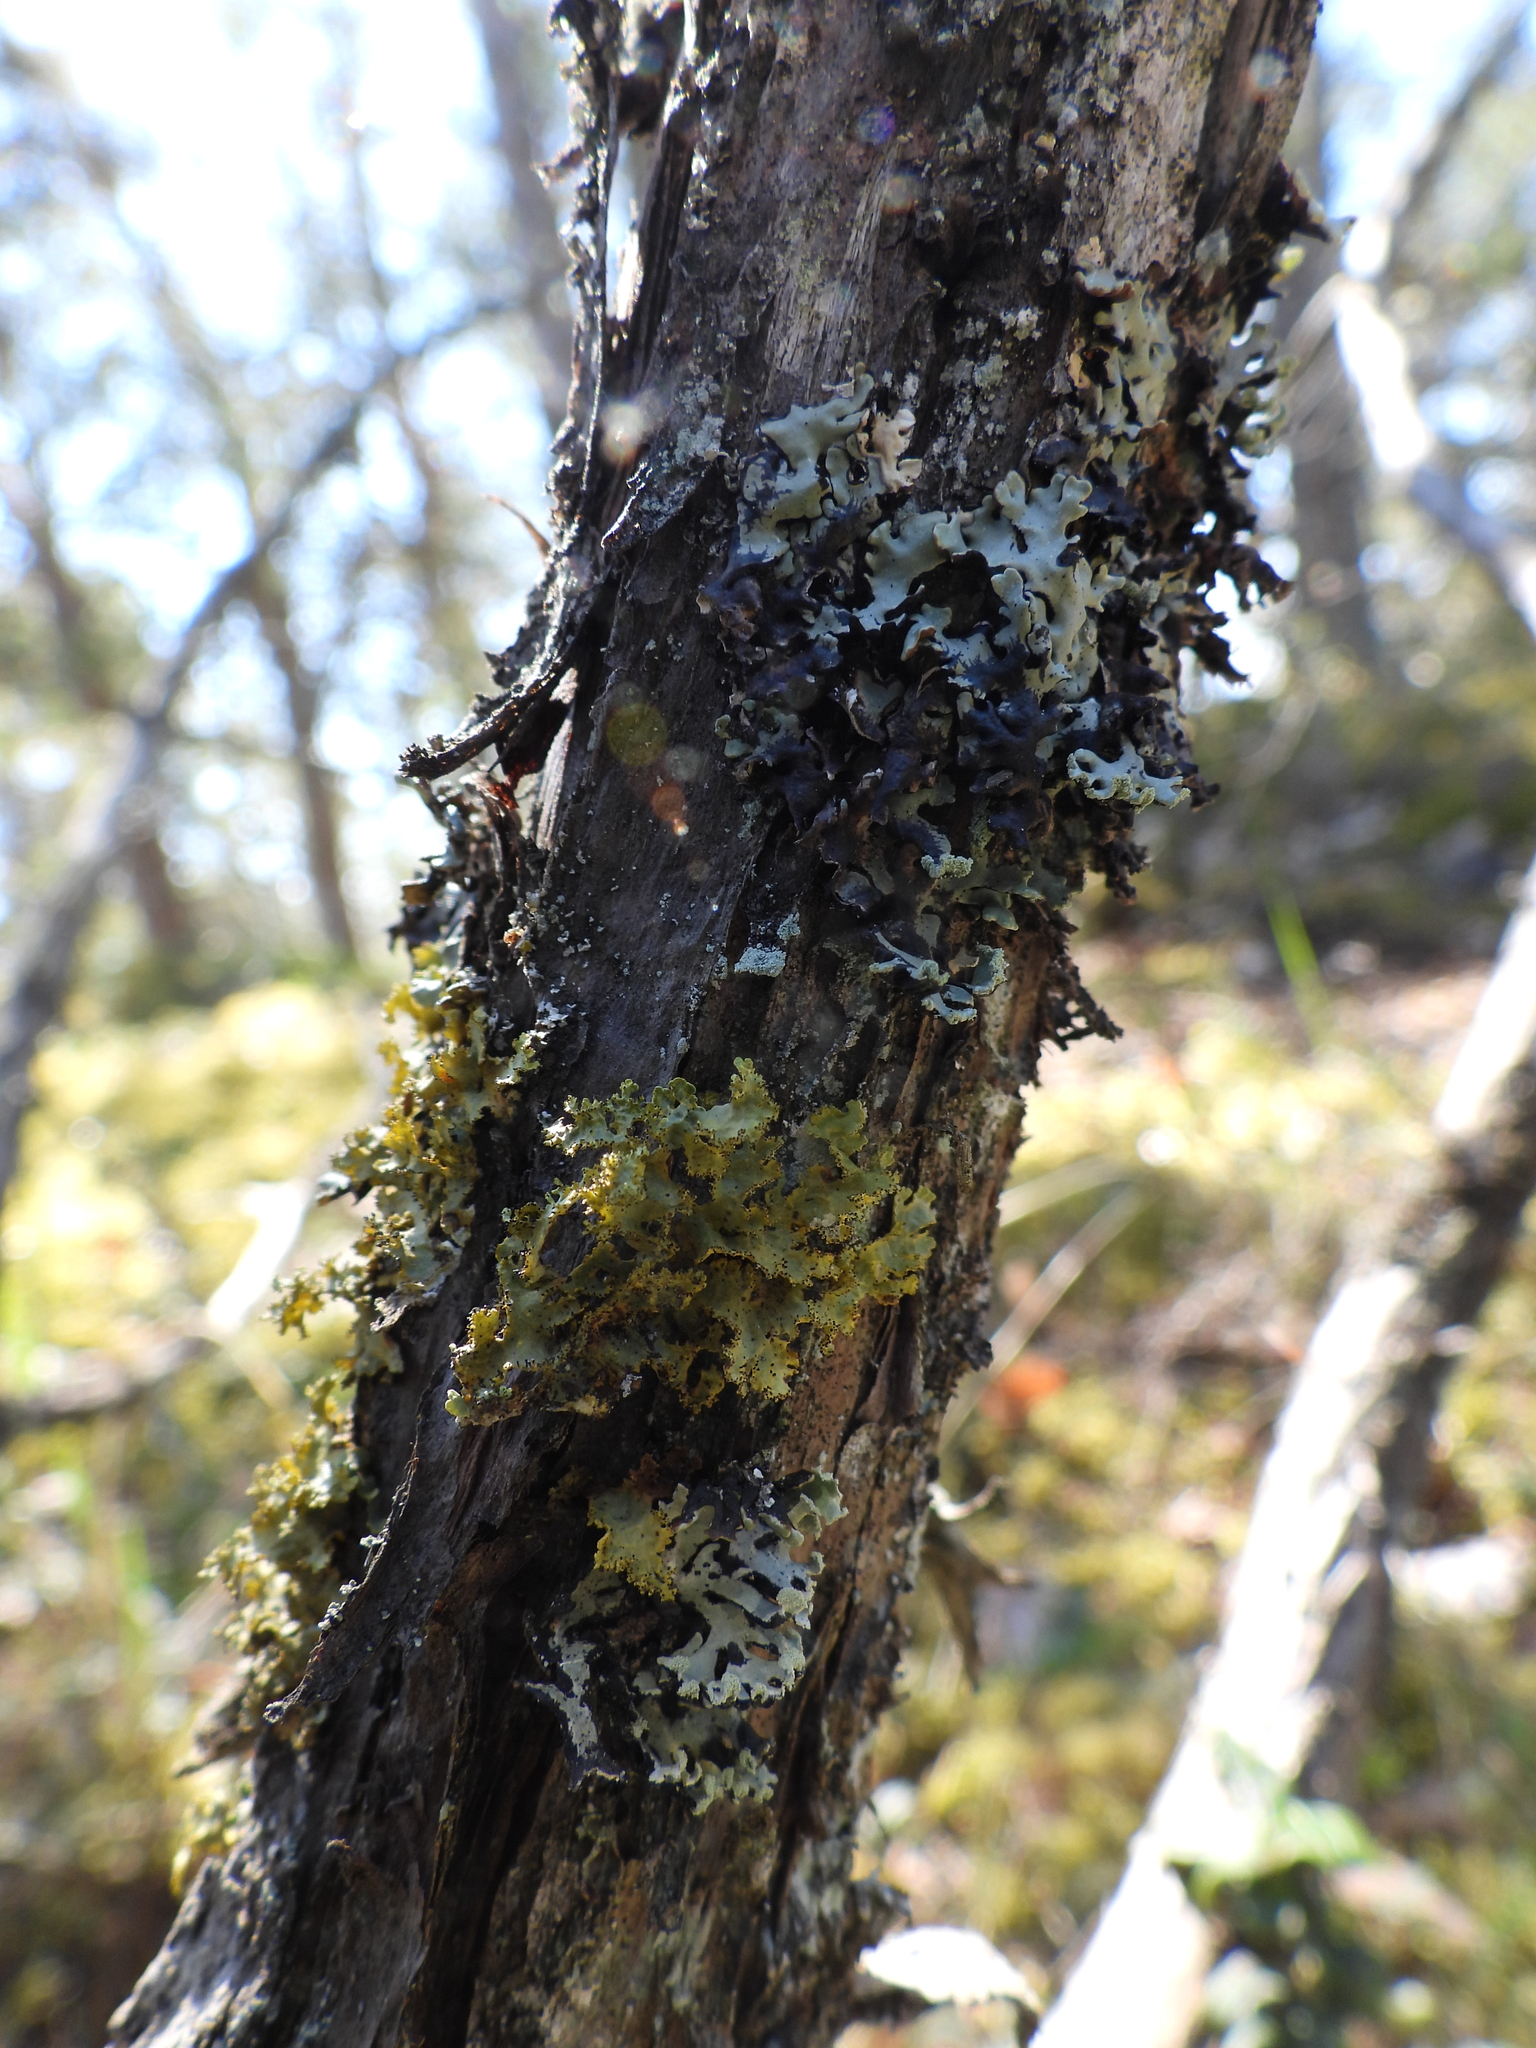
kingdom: Fungi
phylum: Ascomycota
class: Lecanoromycetes
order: Lecanorales
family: Parmeliaceae
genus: Vulpicida
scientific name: Vulpicida pinastri
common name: Powdered sunshine lichen
